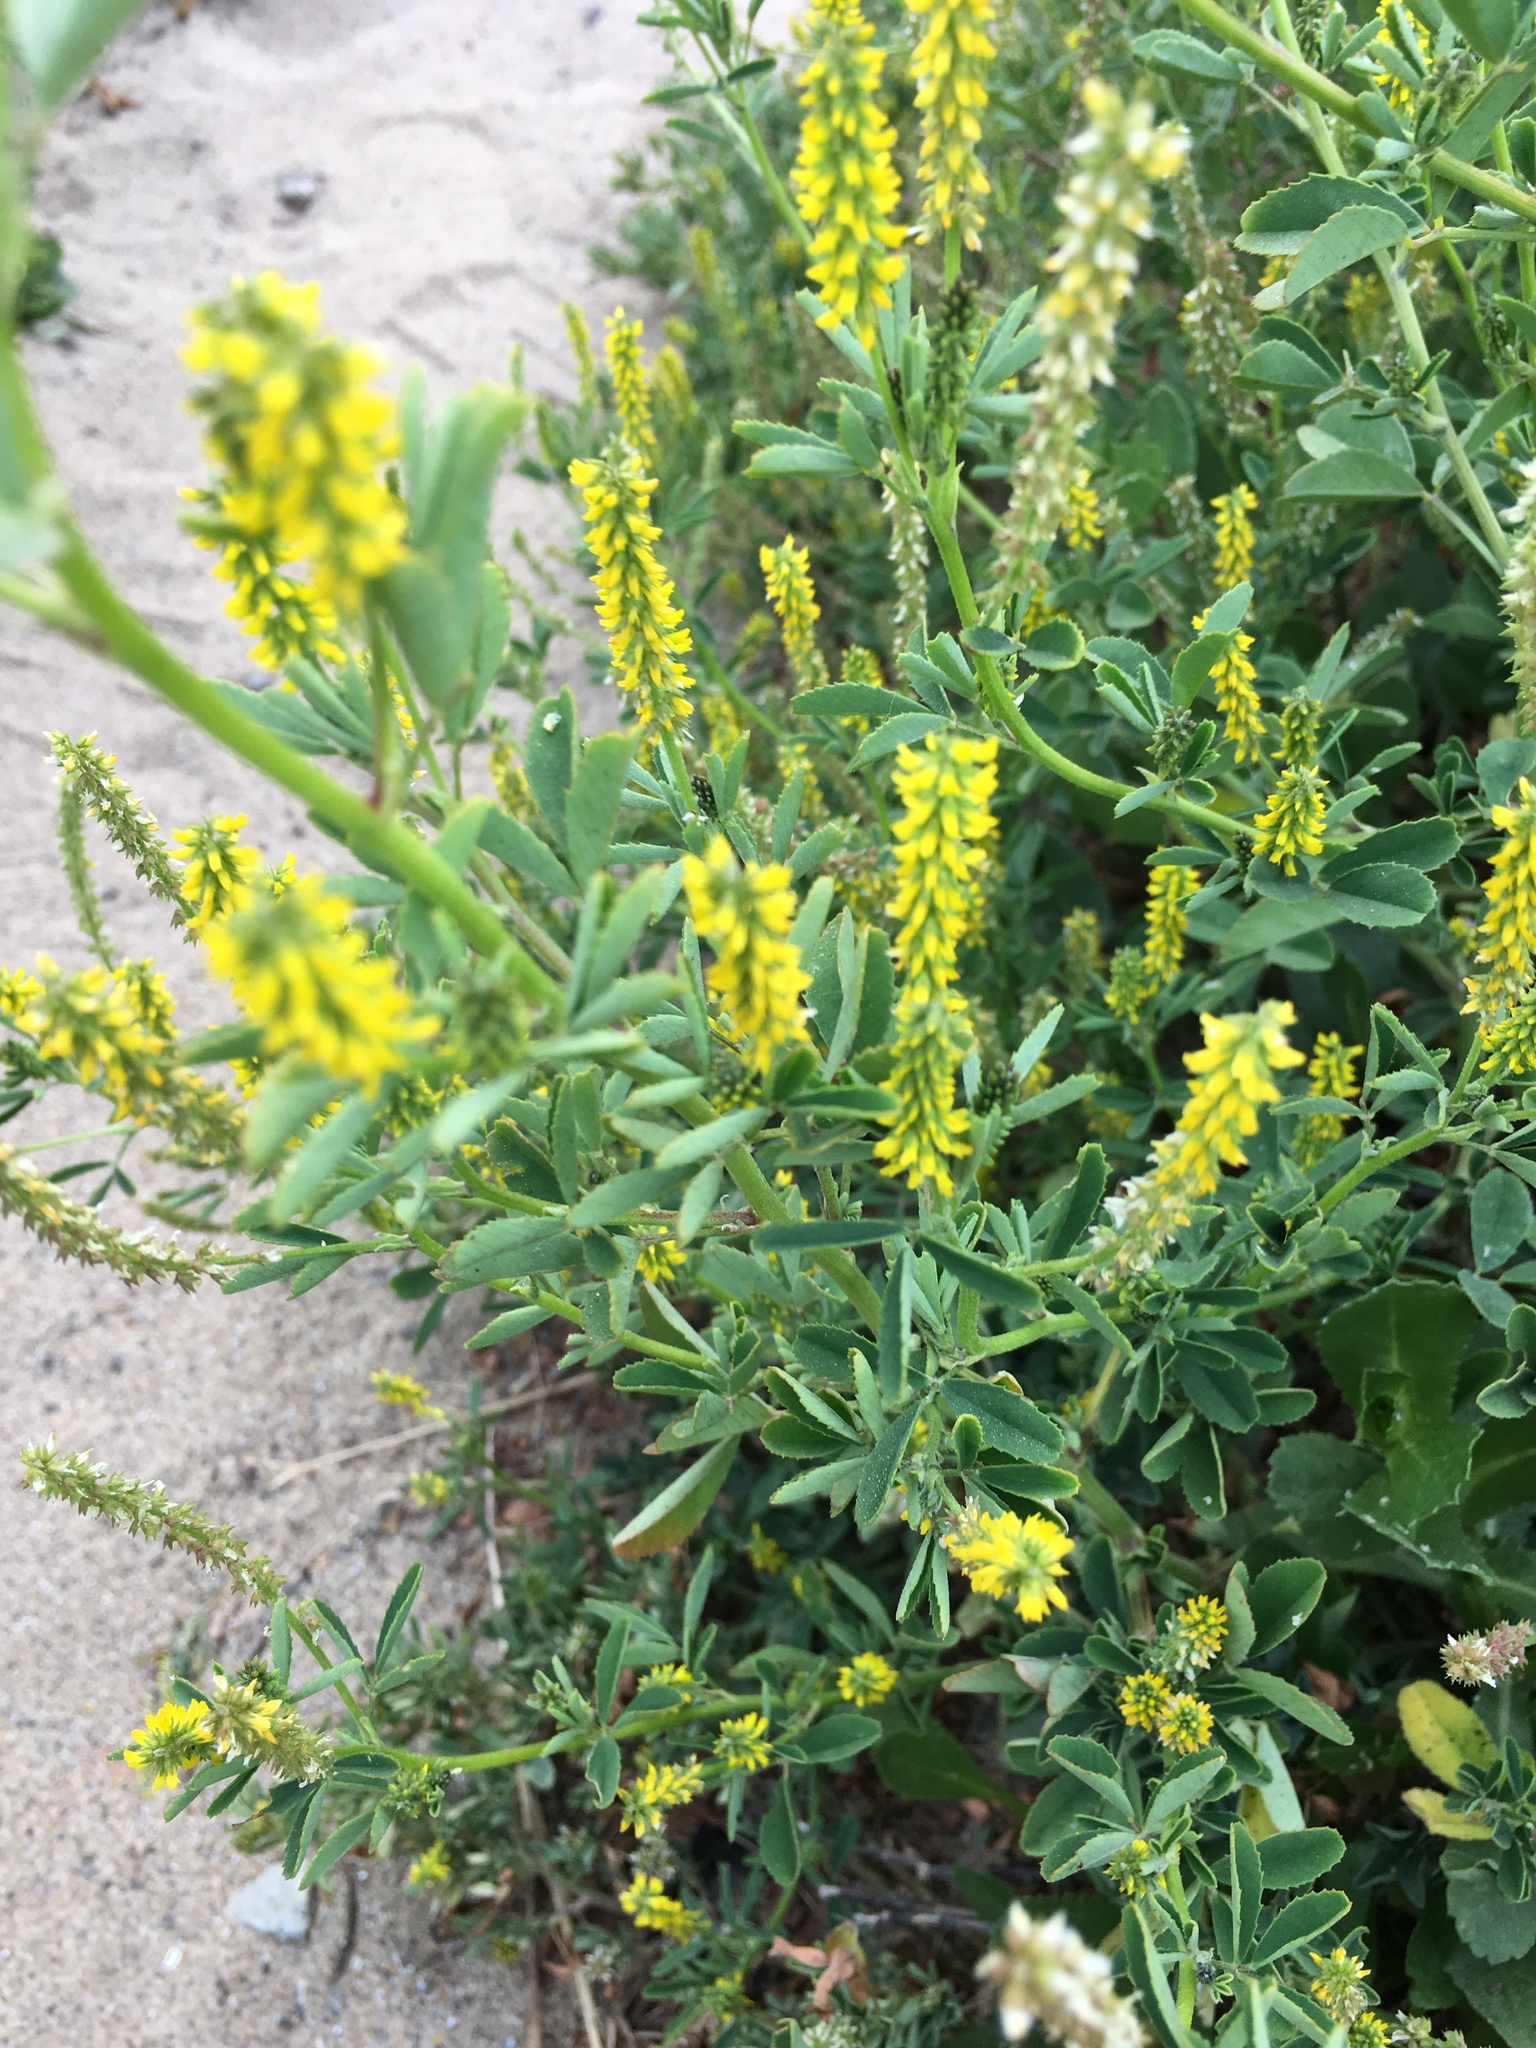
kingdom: Plantae
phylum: Tracheophyta
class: Magnoliopsida
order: Fabales
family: Fabaceae
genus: Melilotus
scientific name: Melilotus indicus
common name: Small melilot
